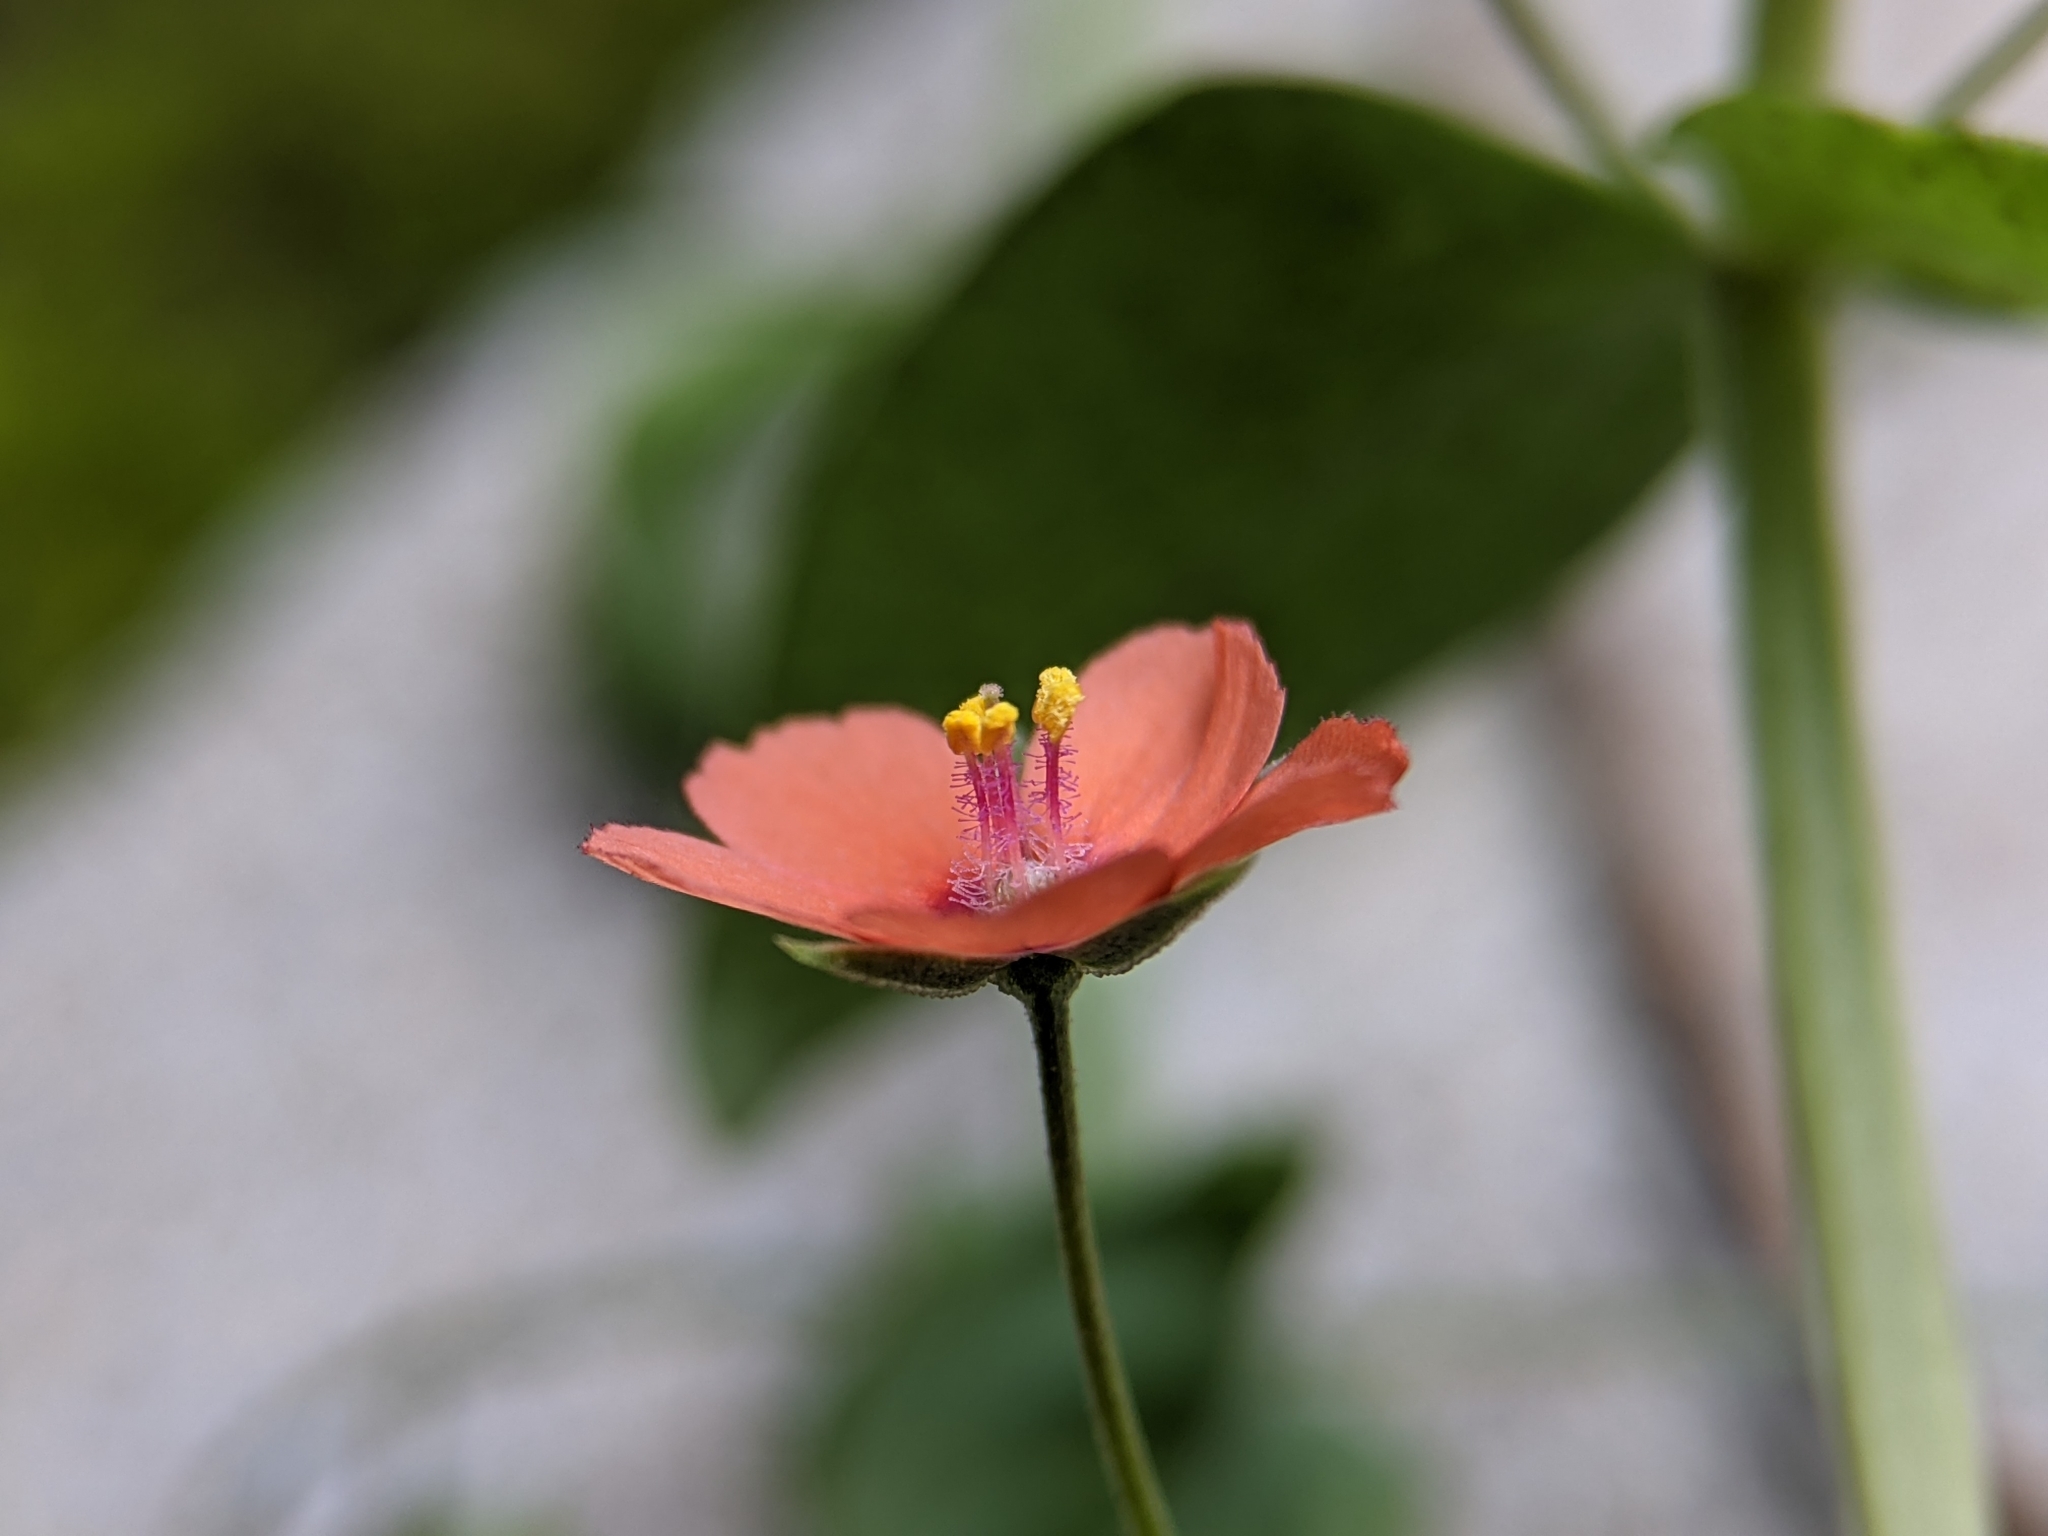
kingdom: Plantae
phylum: Tracheophyta
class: Magnoliopsida
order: Ericales
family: Primulaceae
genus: Lysimachia
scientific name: Lysimachia arvensis
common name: Scarlet pimpernel
